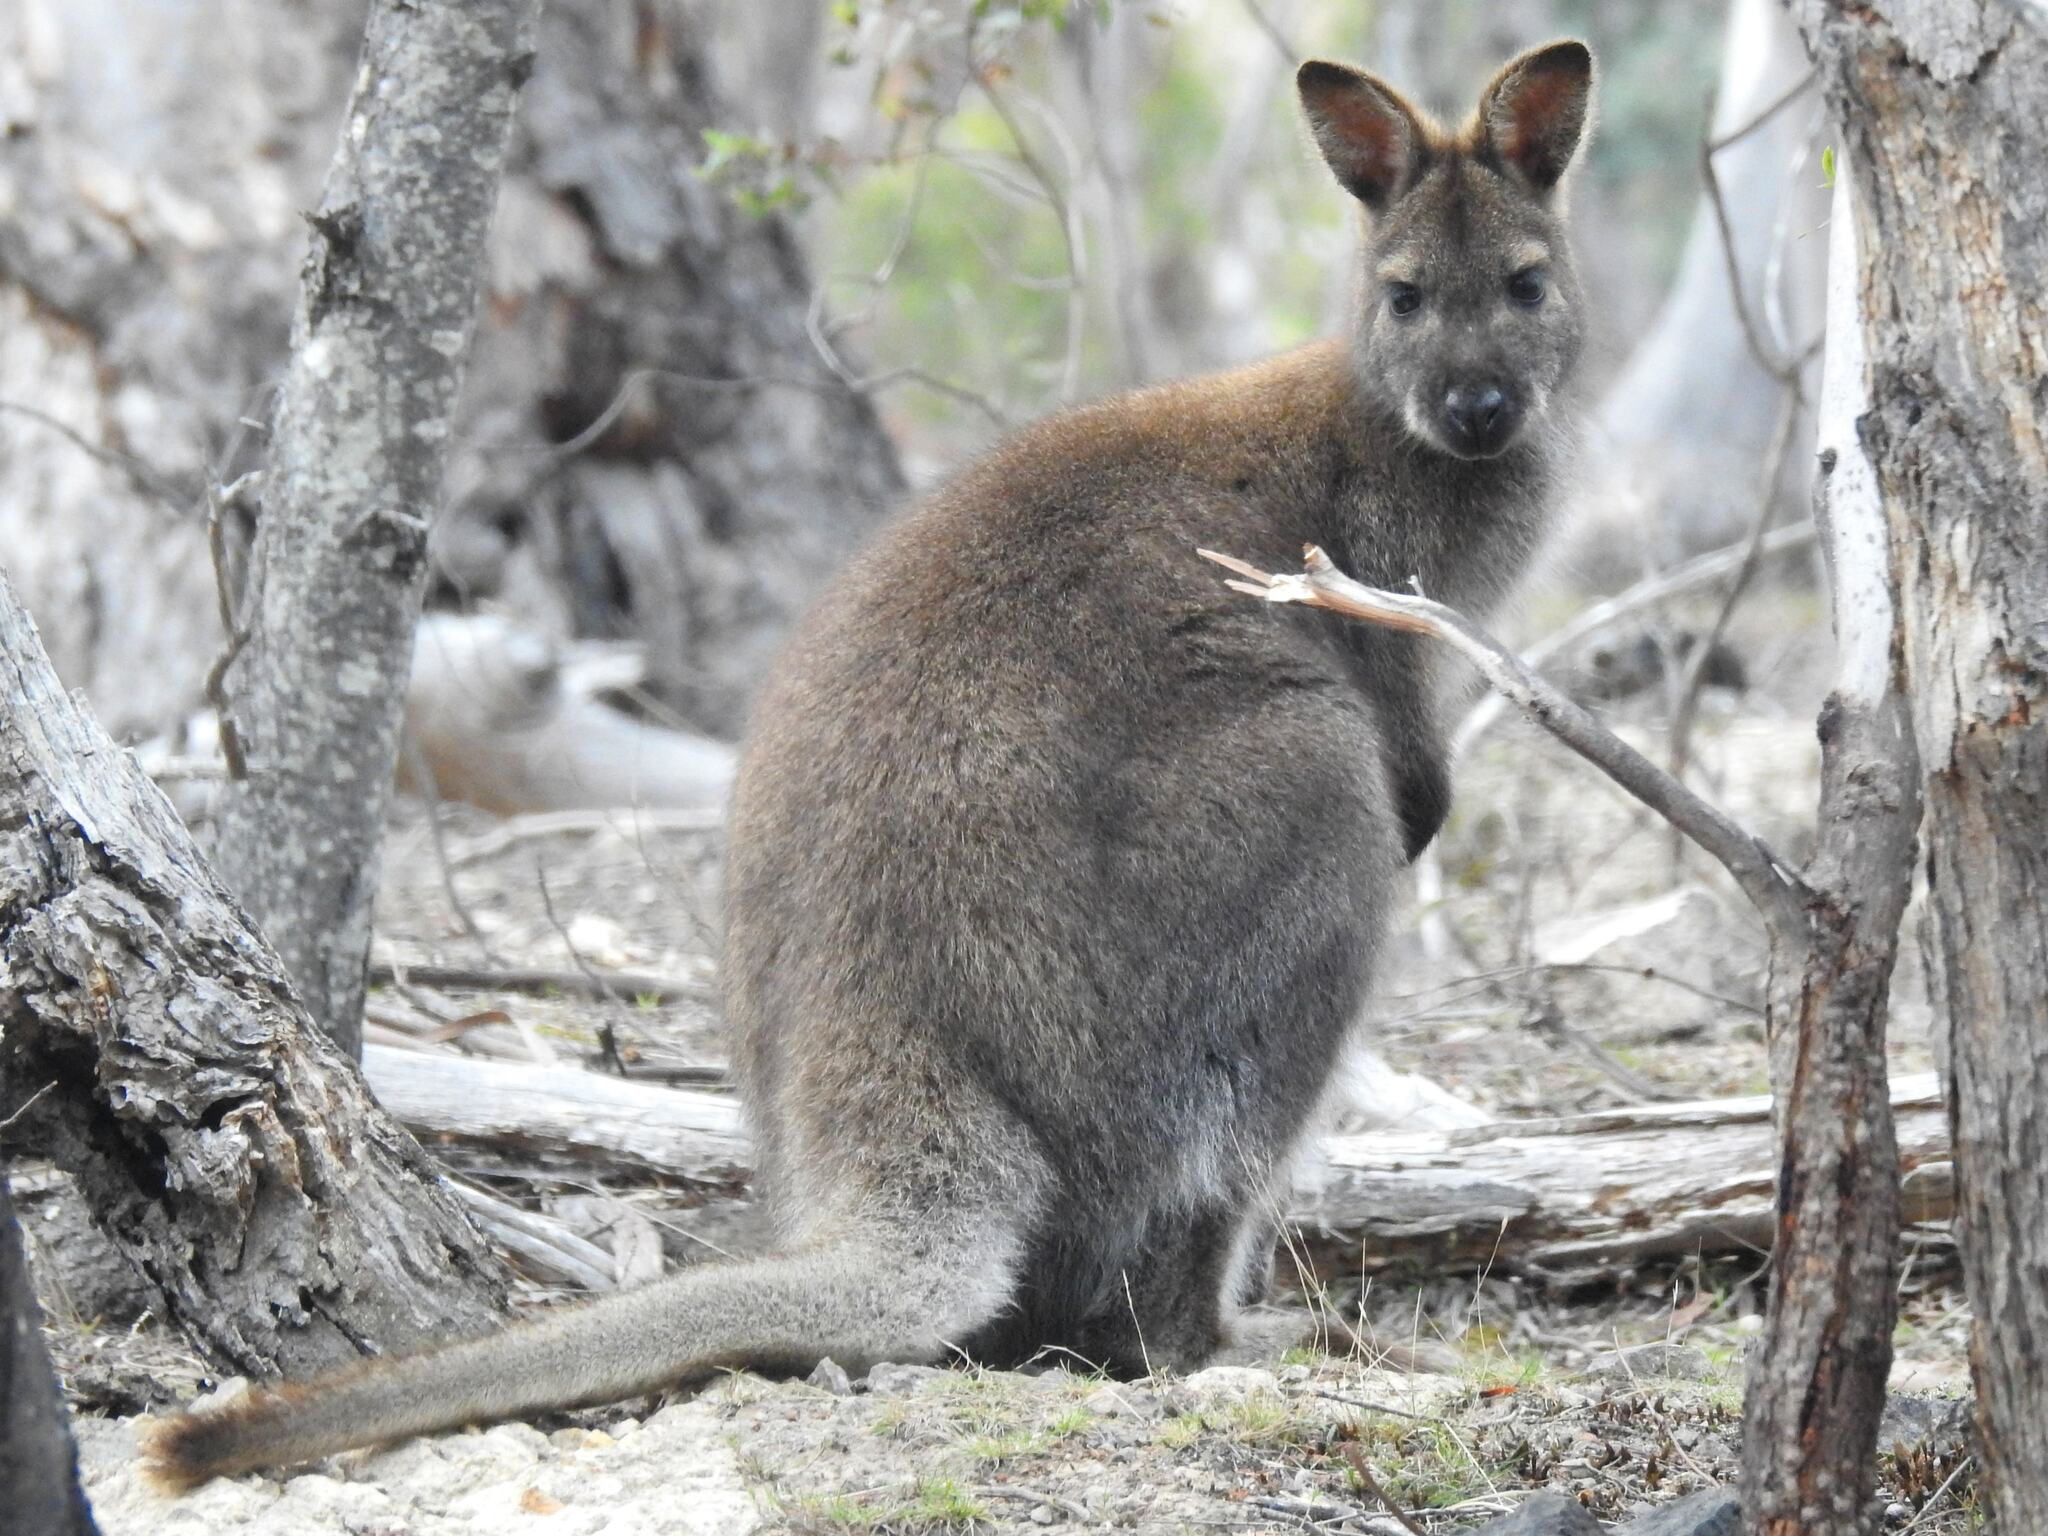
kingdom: Animalia
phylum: Chordata
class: Mammalia
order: Diprotodontia
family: Macropodidae
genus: Notamacropus
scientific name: Notamacropus rufogriseus
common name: Red-necked wallaby
